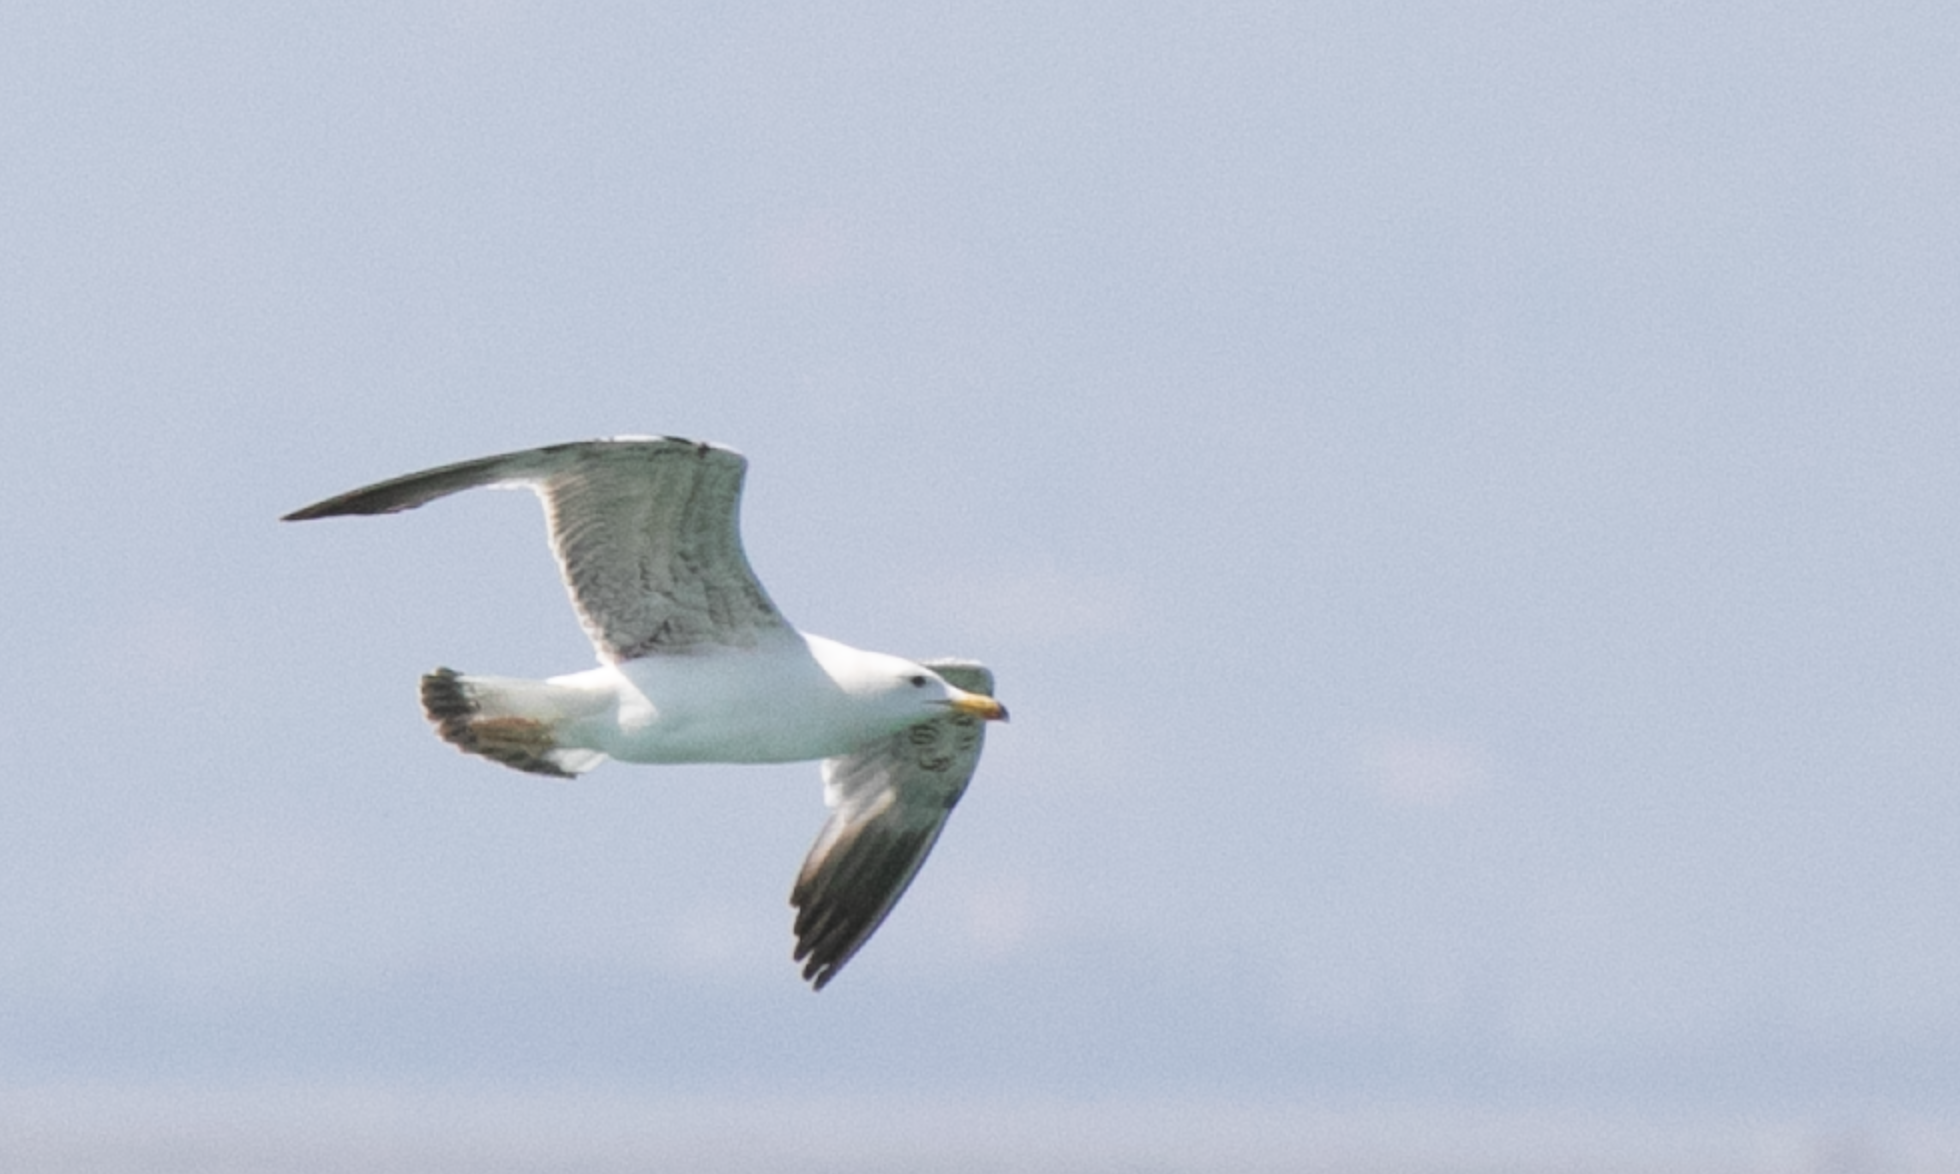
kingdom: Animalia
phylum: Chordata
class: Aves
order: Charadriiformes
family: Laridae
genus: Larus
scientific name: Larus michahellis
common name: Yellow-legged gull
